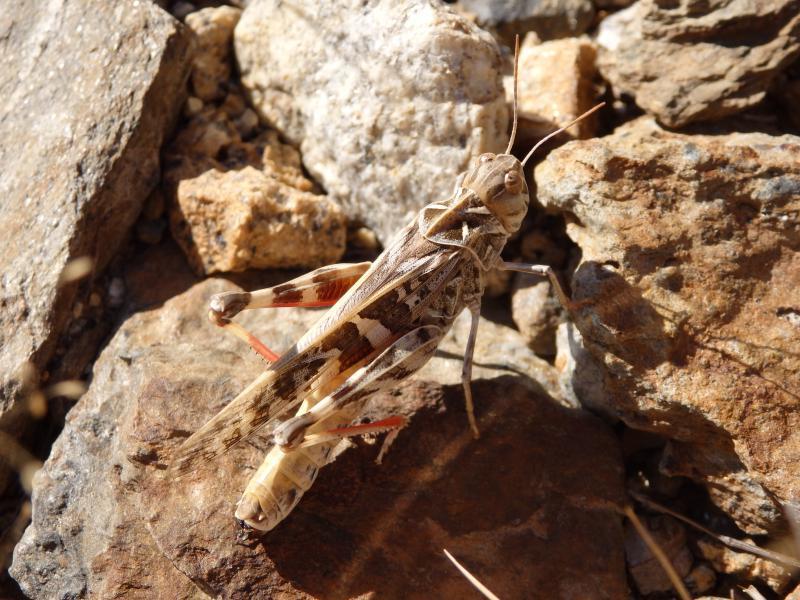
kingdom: Animalia
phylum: Arthropoda
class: Insecta
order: Orthoptera
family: Acrididae
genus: Oedaleus
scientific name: Oedaleus decorus
